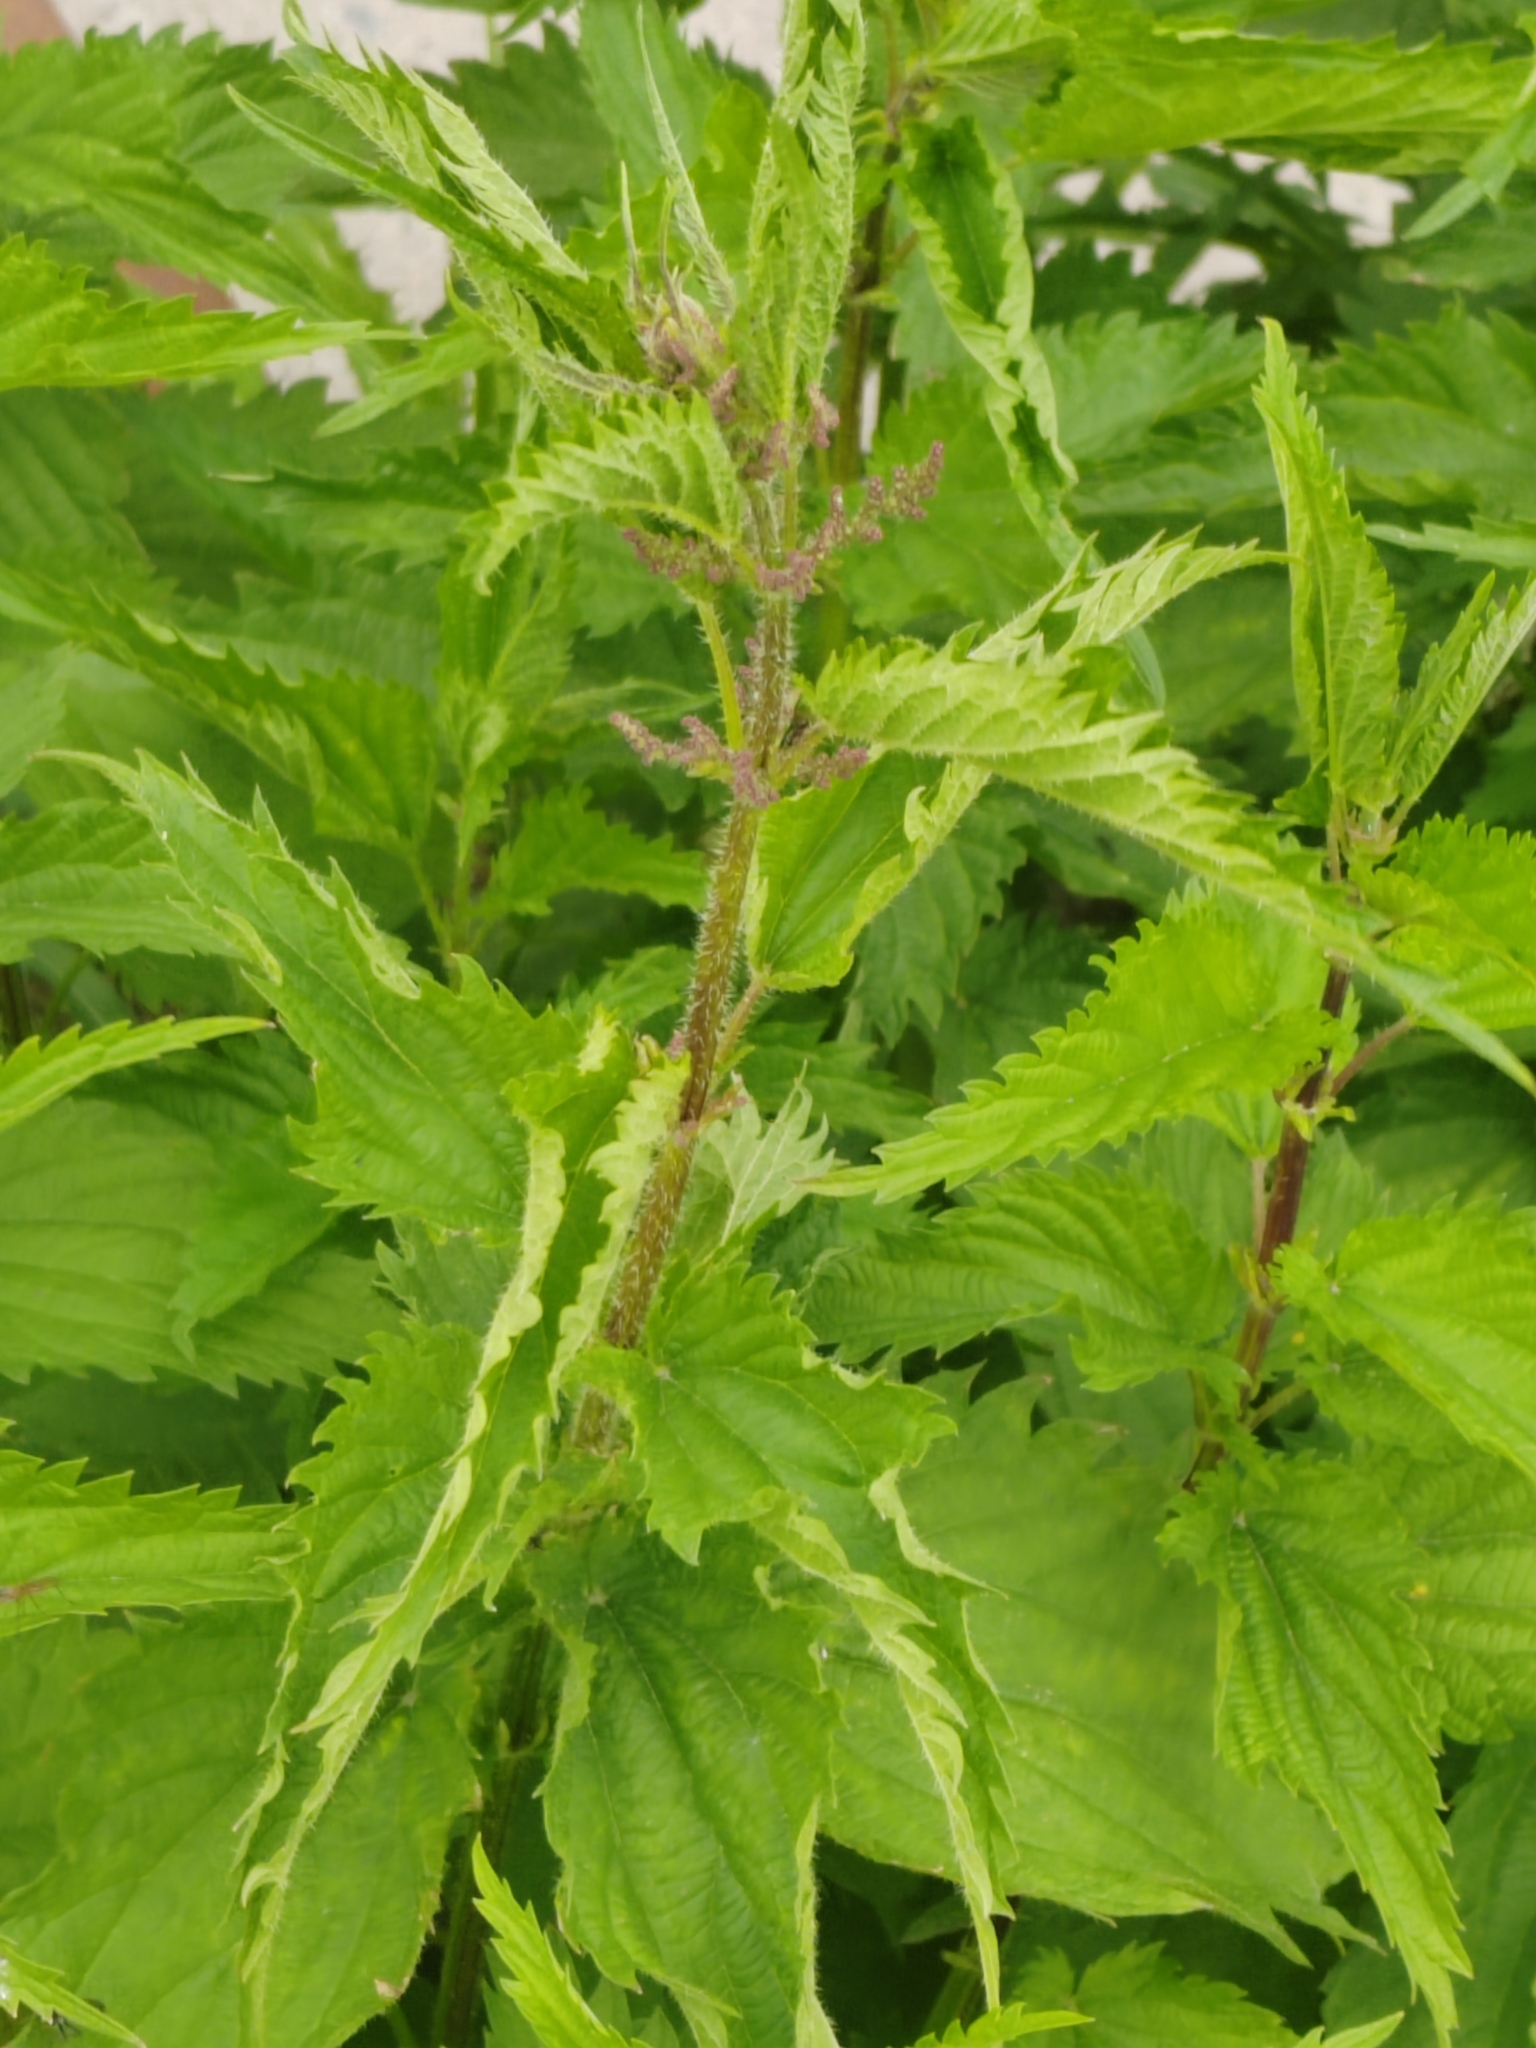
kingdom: Plantae
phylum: Tracheophyta
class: Magnoliopsida
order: Rosales
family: Urticaceae
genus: Urtica
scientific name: Urtica dioica
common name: Common nettle
